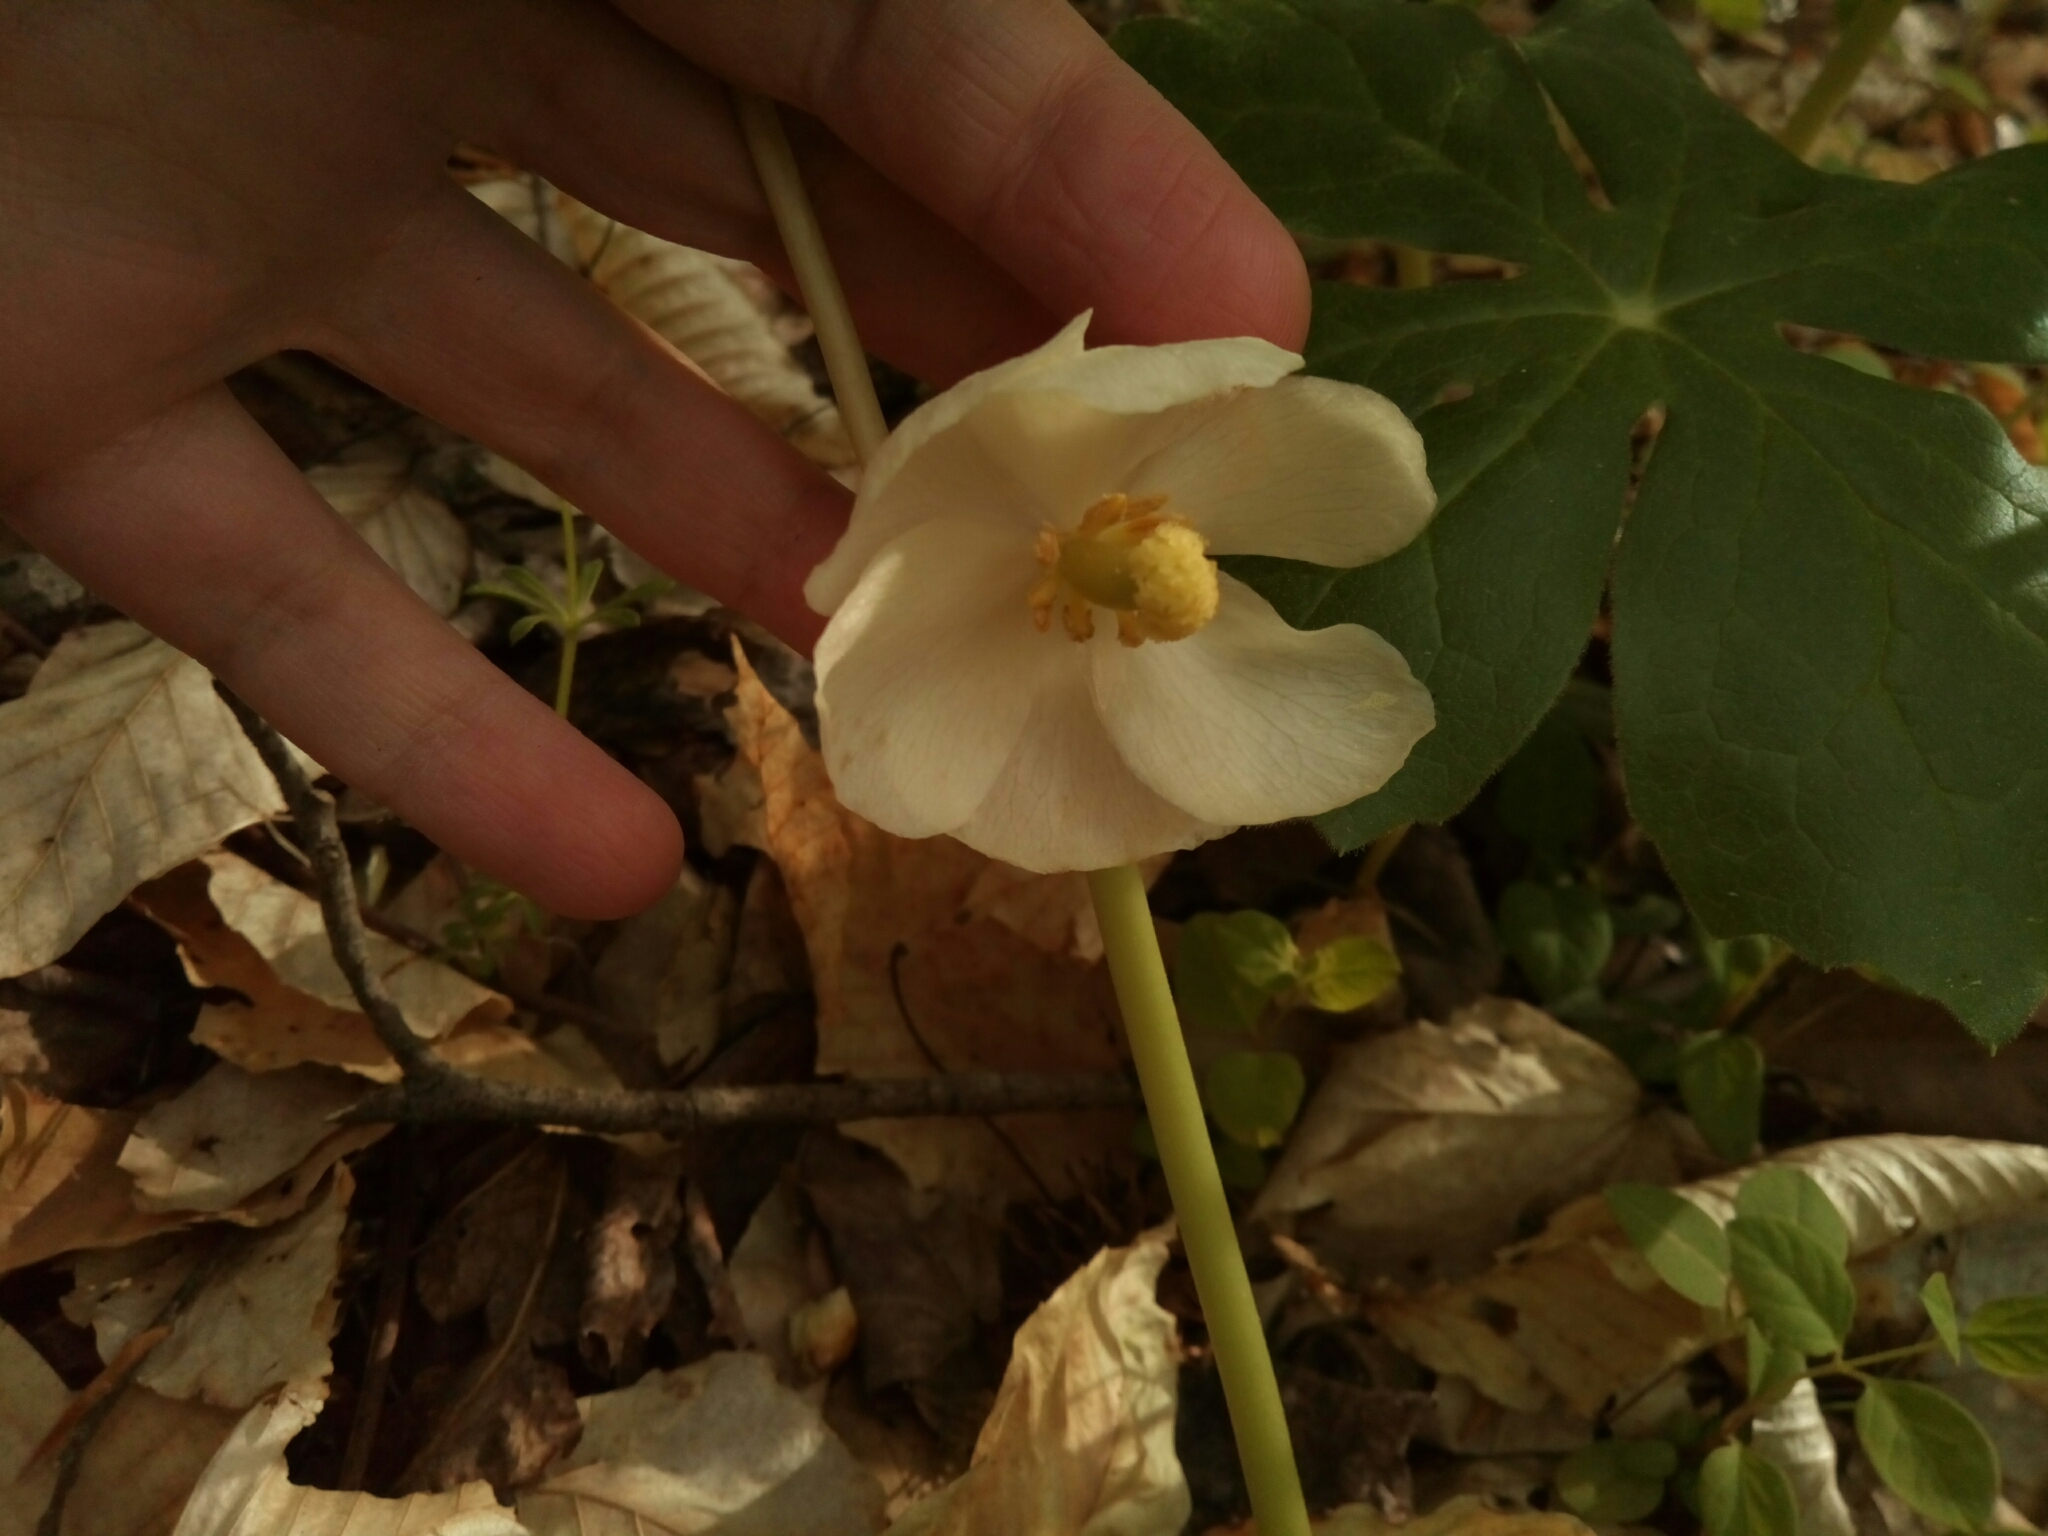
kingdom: Plantae
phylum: Tracheophyta
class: Magnoliopsida
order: Ranunculales
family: Berberidaceae
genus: Podophyllum
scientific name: Podophyllum peltatum
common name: Wild mandrake
